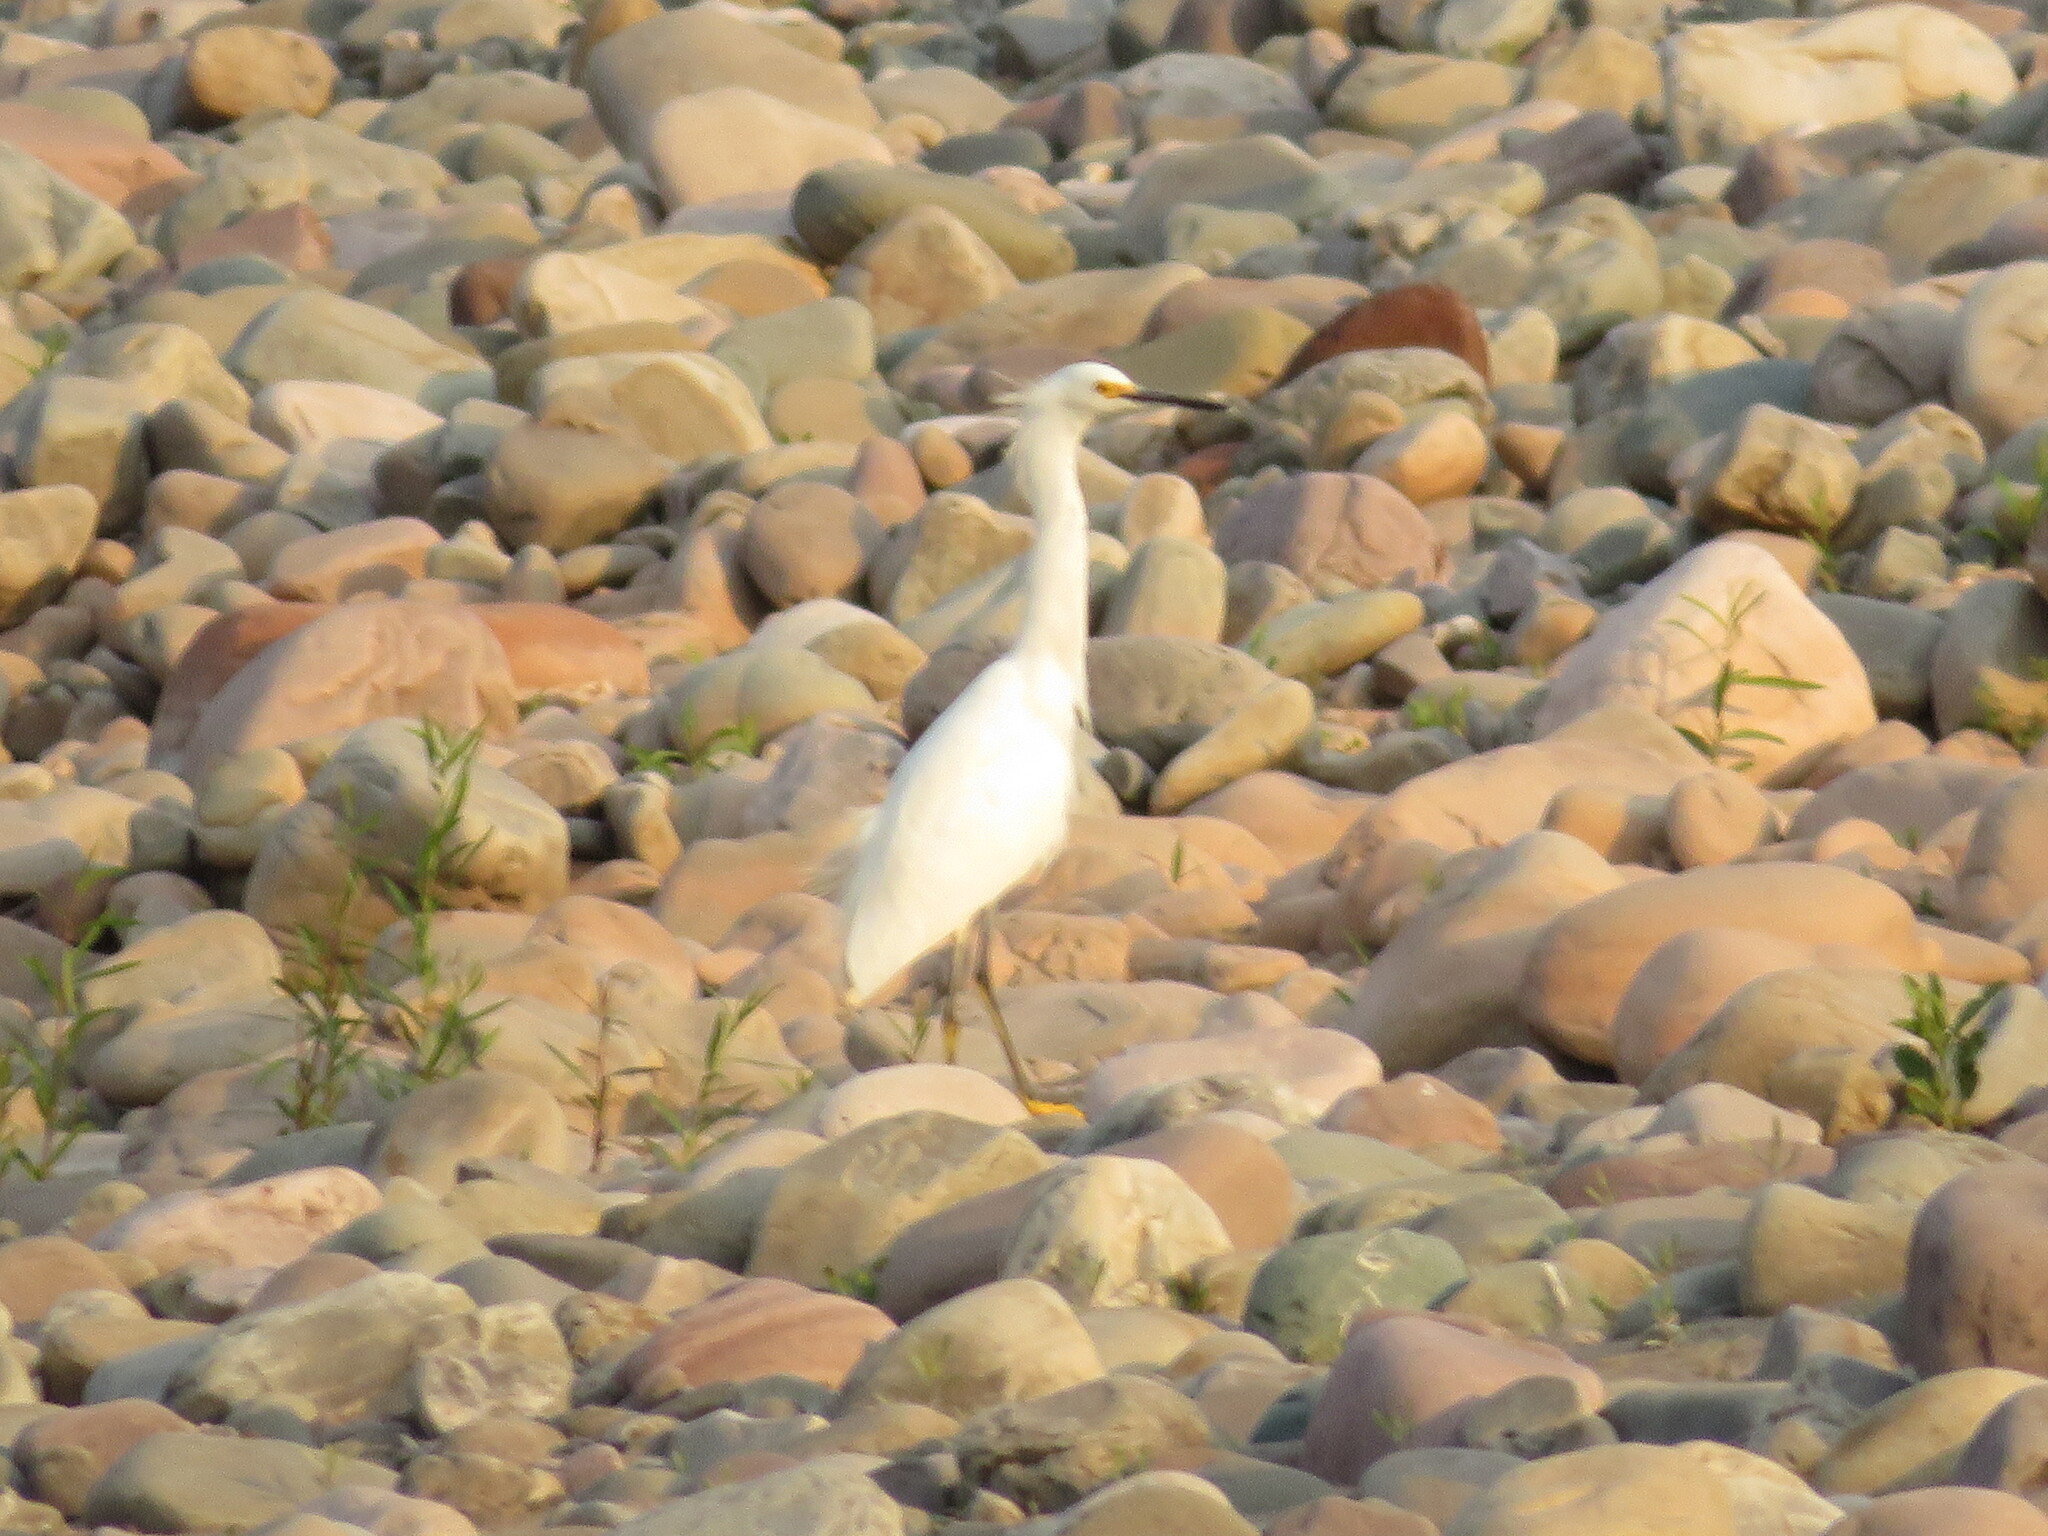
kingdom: Animalia
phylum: Chordata
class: Aves
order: Pelecaniformes
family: Ardeidae
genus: Egretta
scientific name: Egretta thula
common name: Snowy egret
